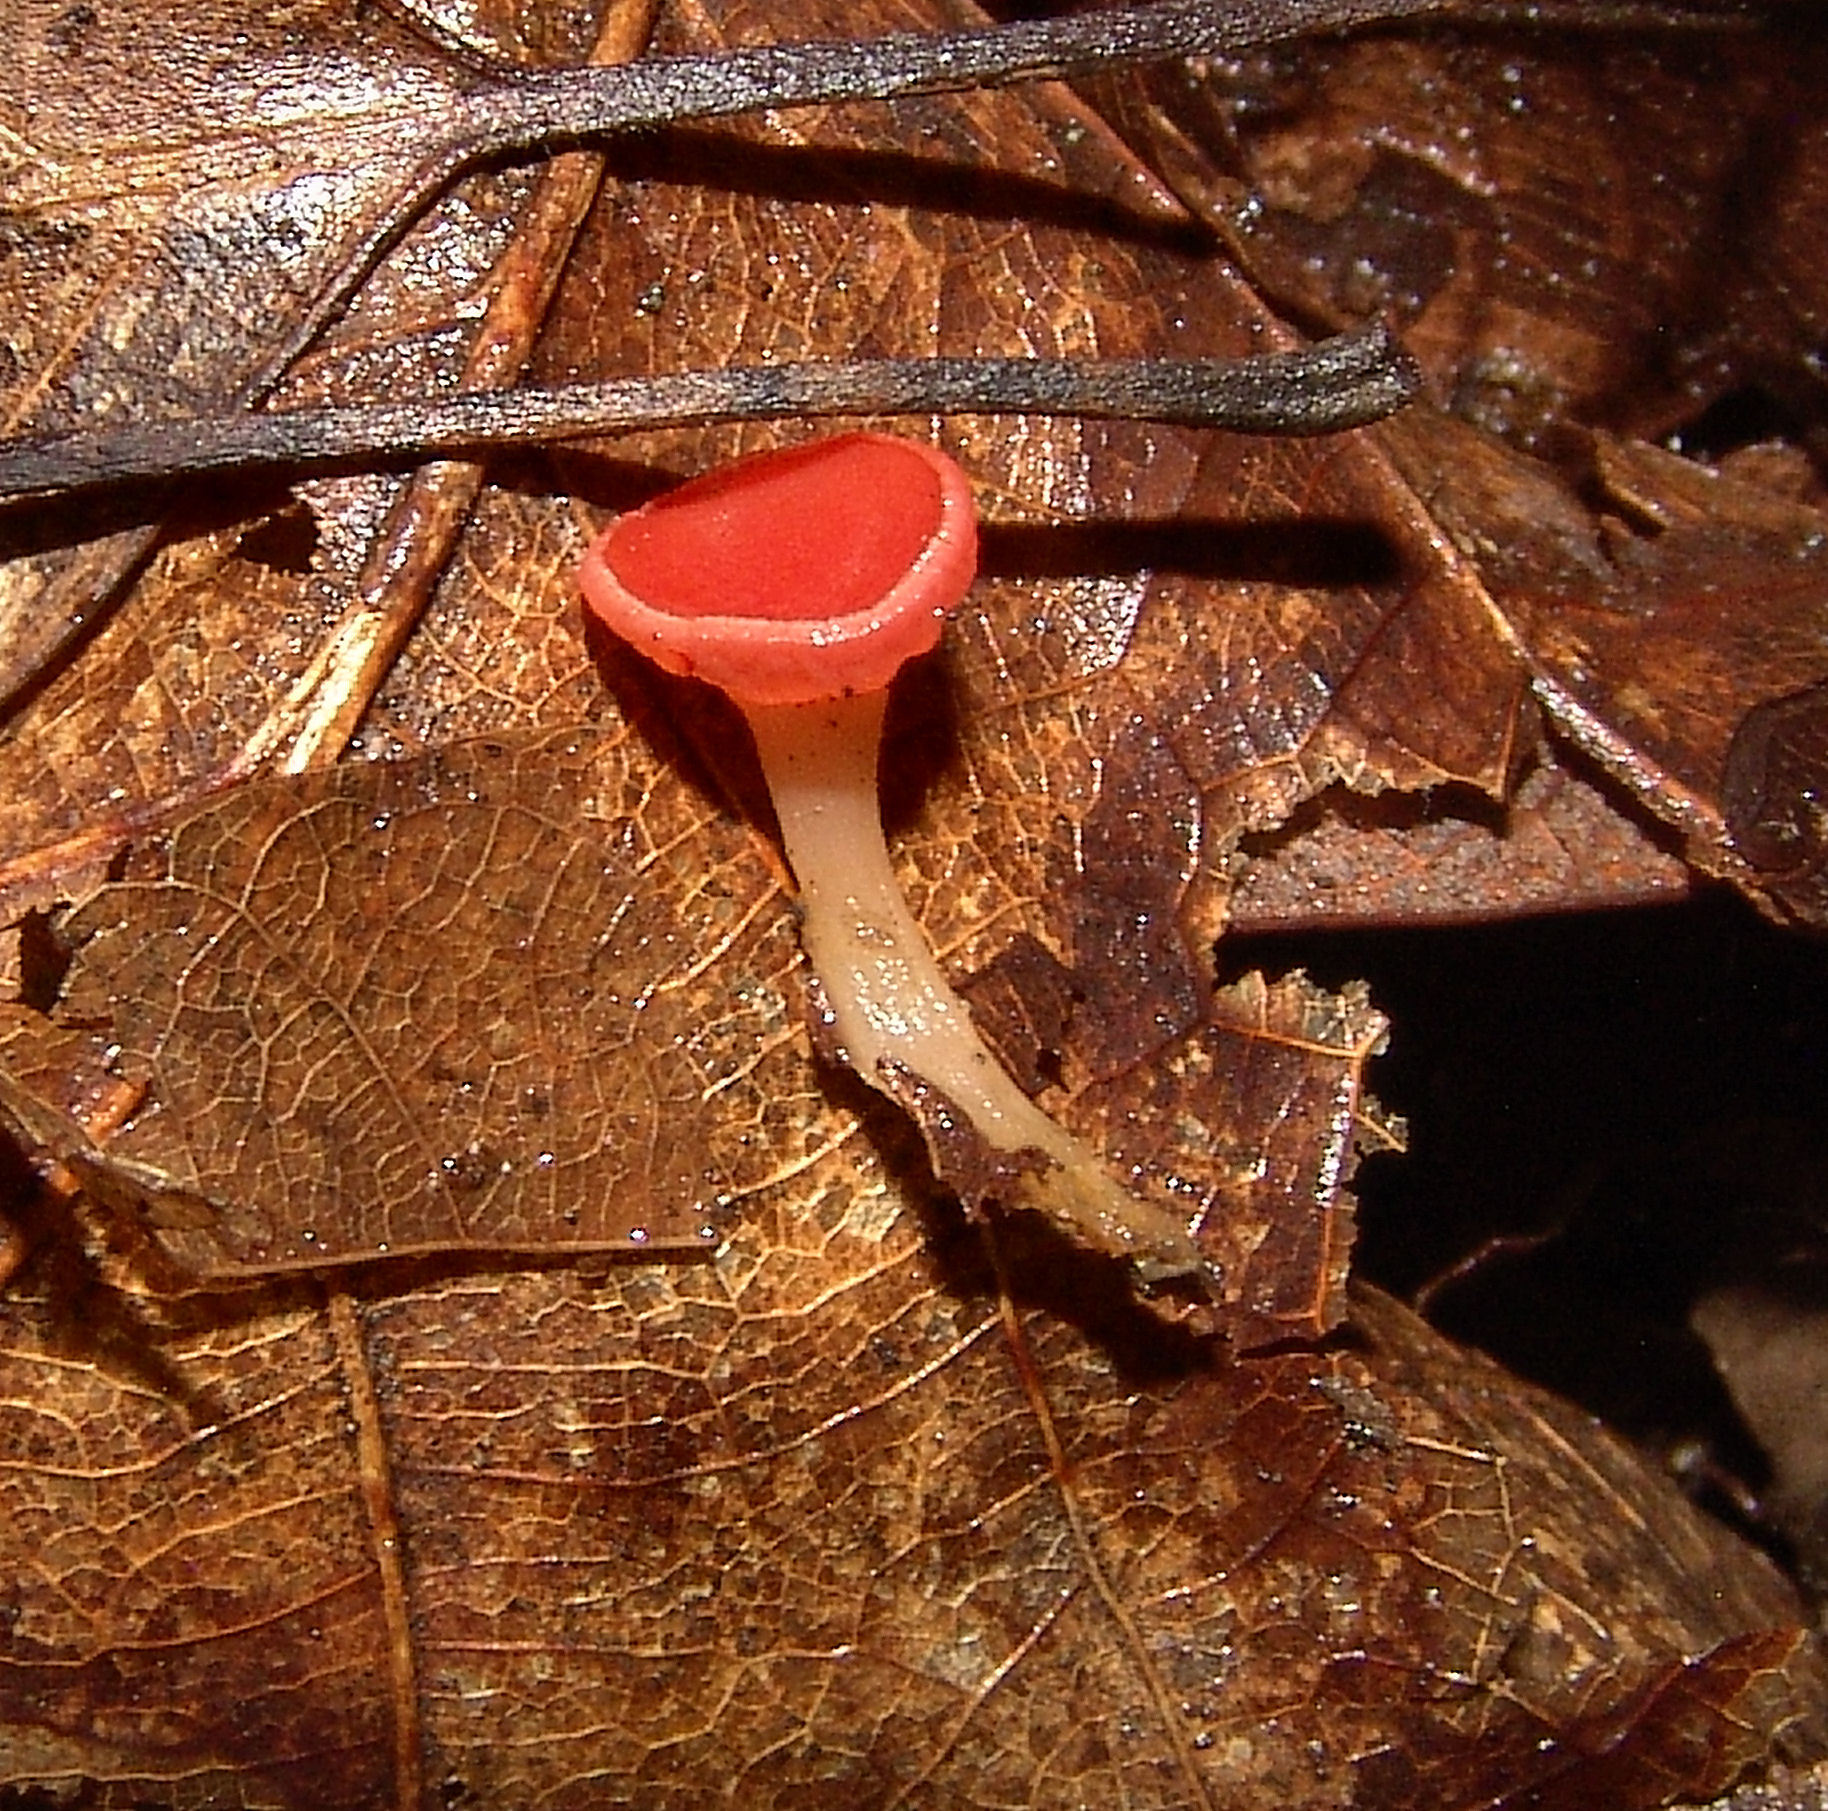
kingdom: Fungi
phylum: Ascomycota
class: Pezizomycetes
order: Pezizales
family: Sarcoscyphaceae
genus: Sarcoscypha
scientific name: Sarcoscypha occidentalis
